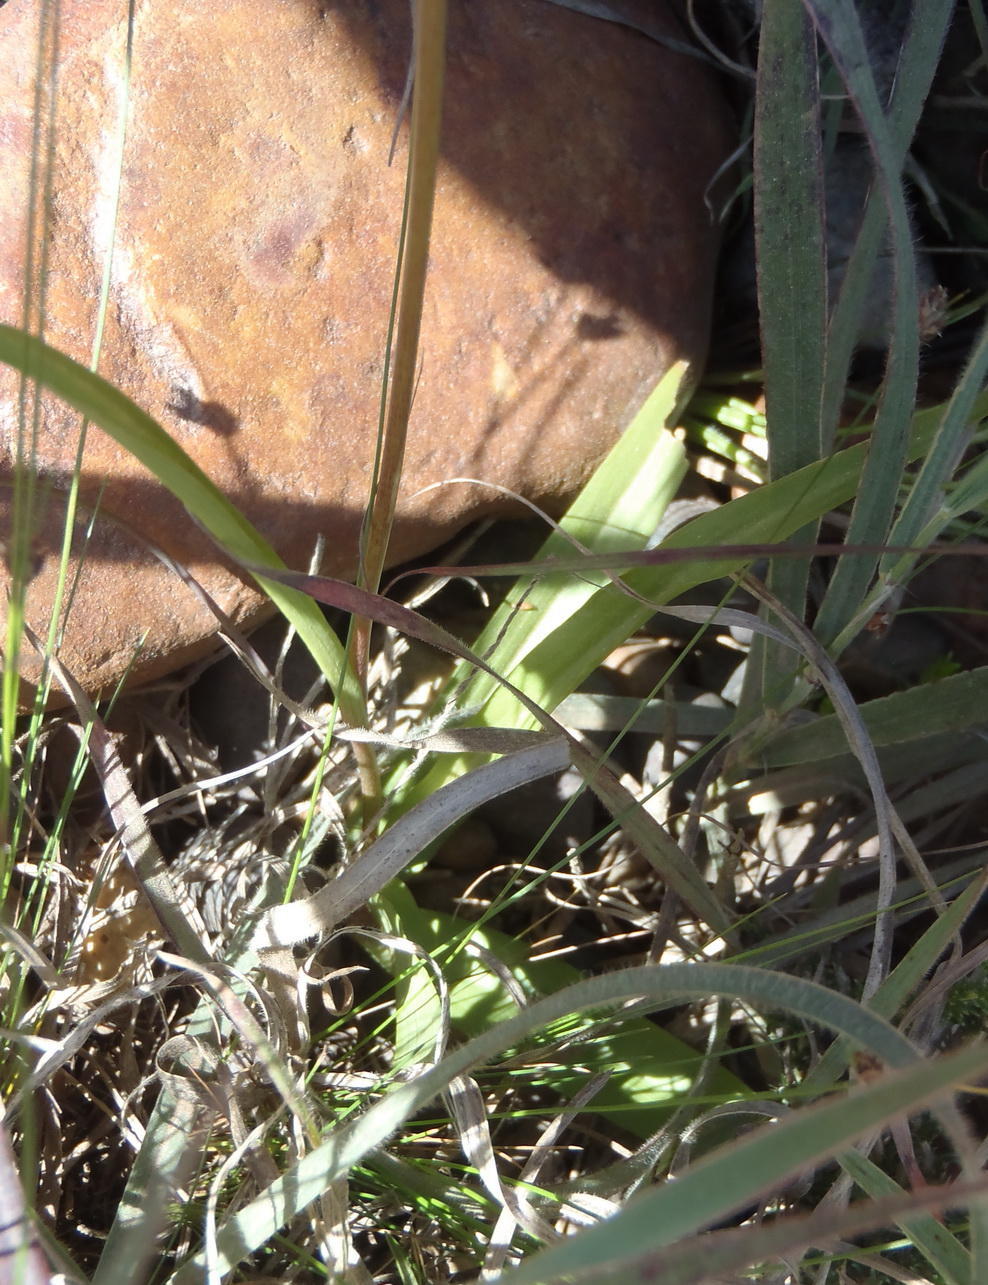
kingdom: Plantae
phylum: Tracheophyta
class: Liliopsida
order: Asparagales
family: Tecophilaeaceae
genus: Cyanella
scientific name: Cyanella lutea
